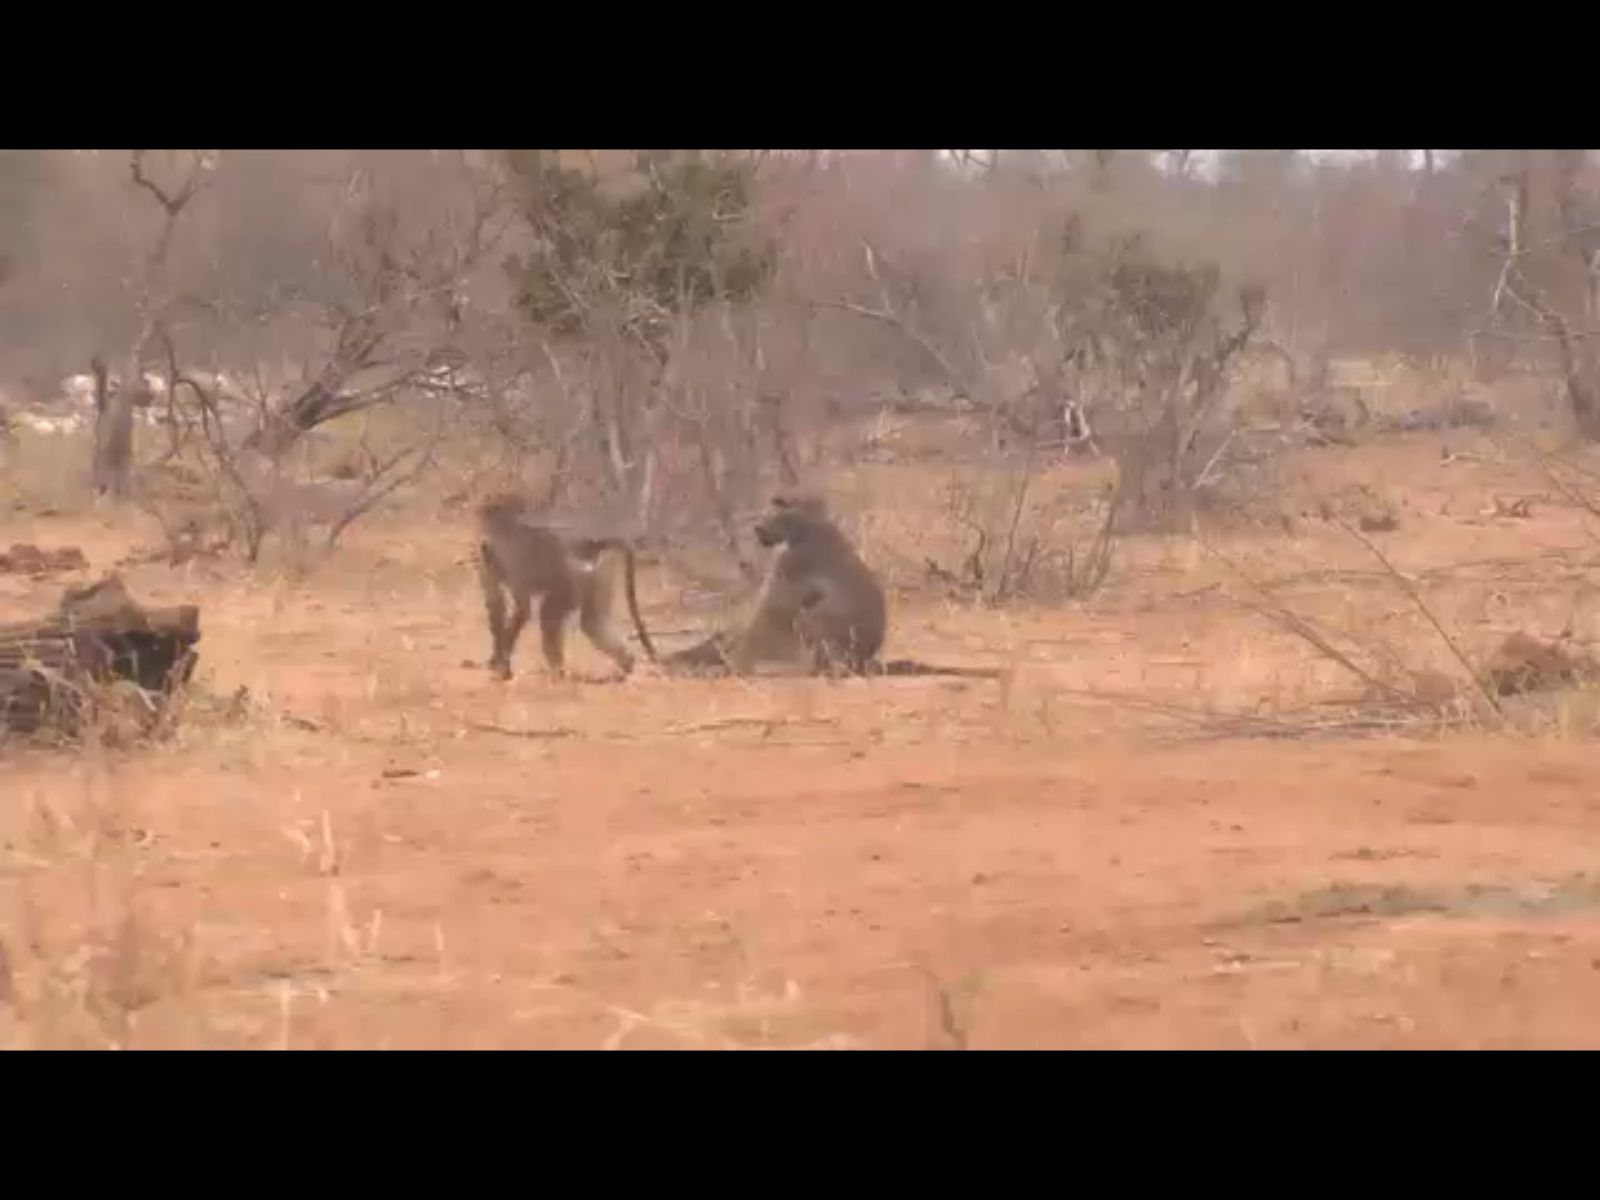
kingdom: Animalia
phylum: Chordata
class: Mammalia
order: Primates
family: Cercopithecidae
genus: Papio
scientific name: Papio ursinus
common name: Chacma baboon
